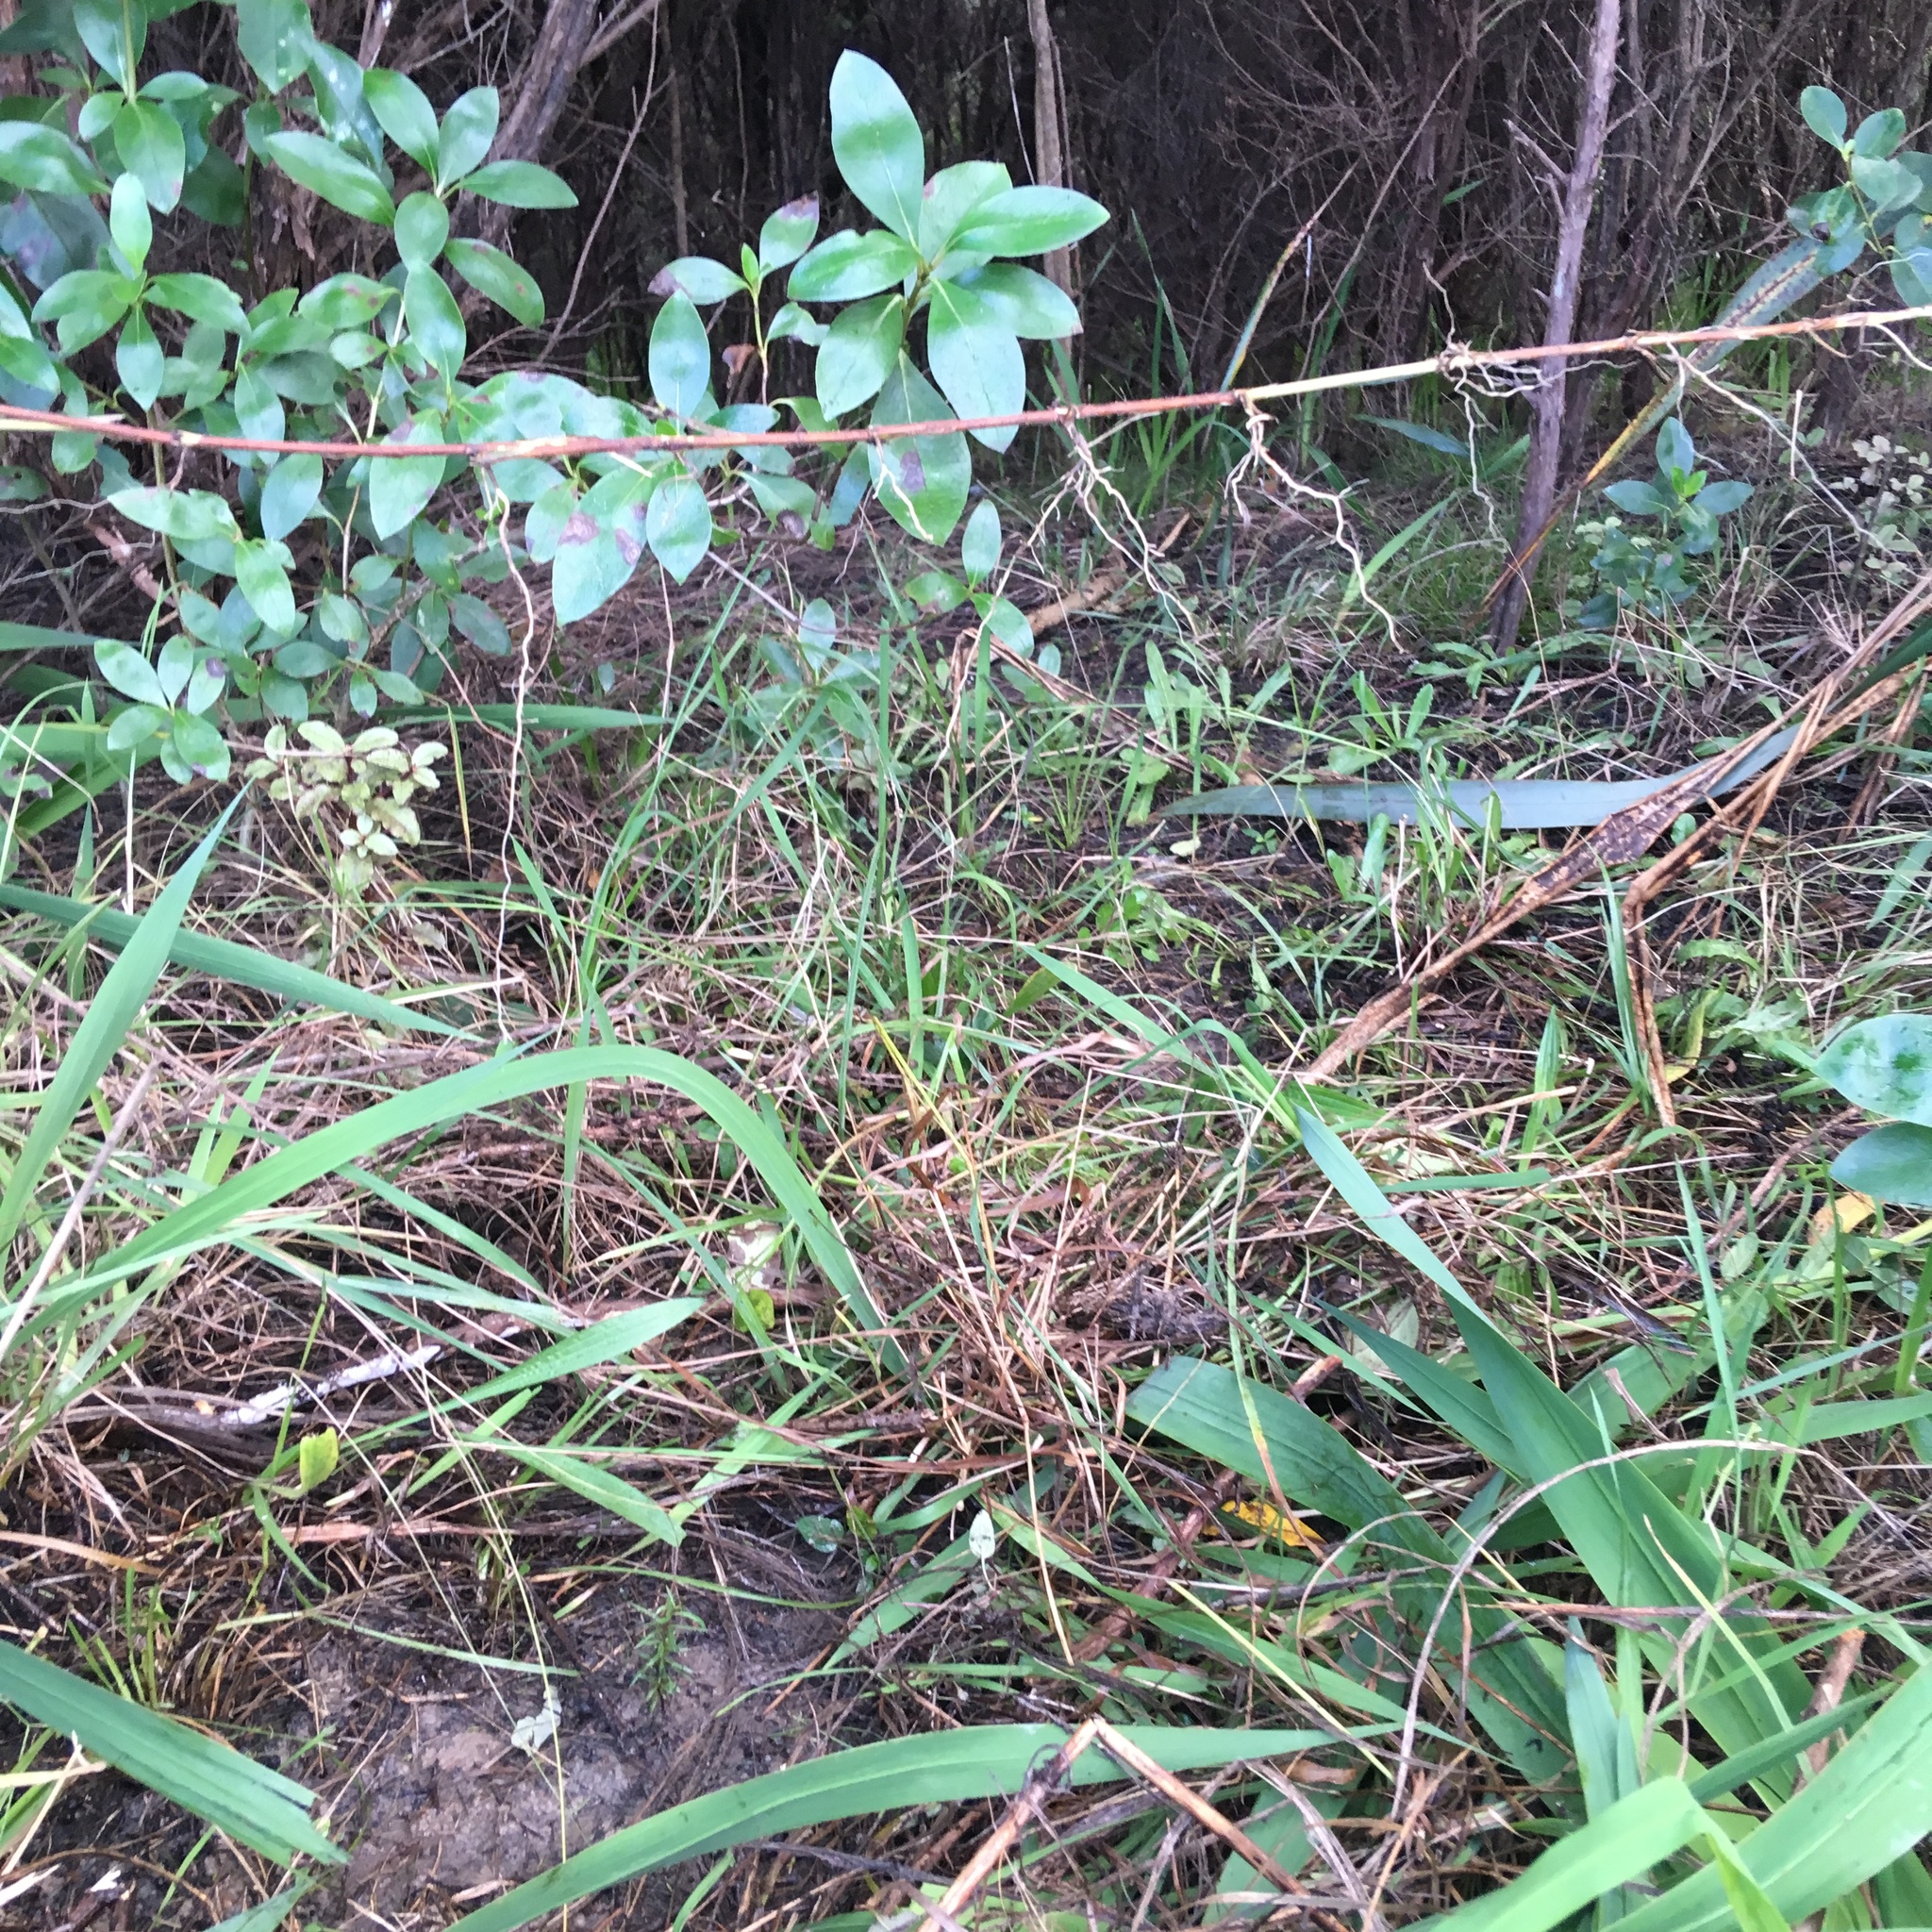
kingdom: Plantae
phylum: Tracheophyta
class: Liliopsida
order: Asparagales
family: Iridaceae
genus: Watsonia
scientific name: Watsonia meriana
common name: Bulbil bugle-lily
